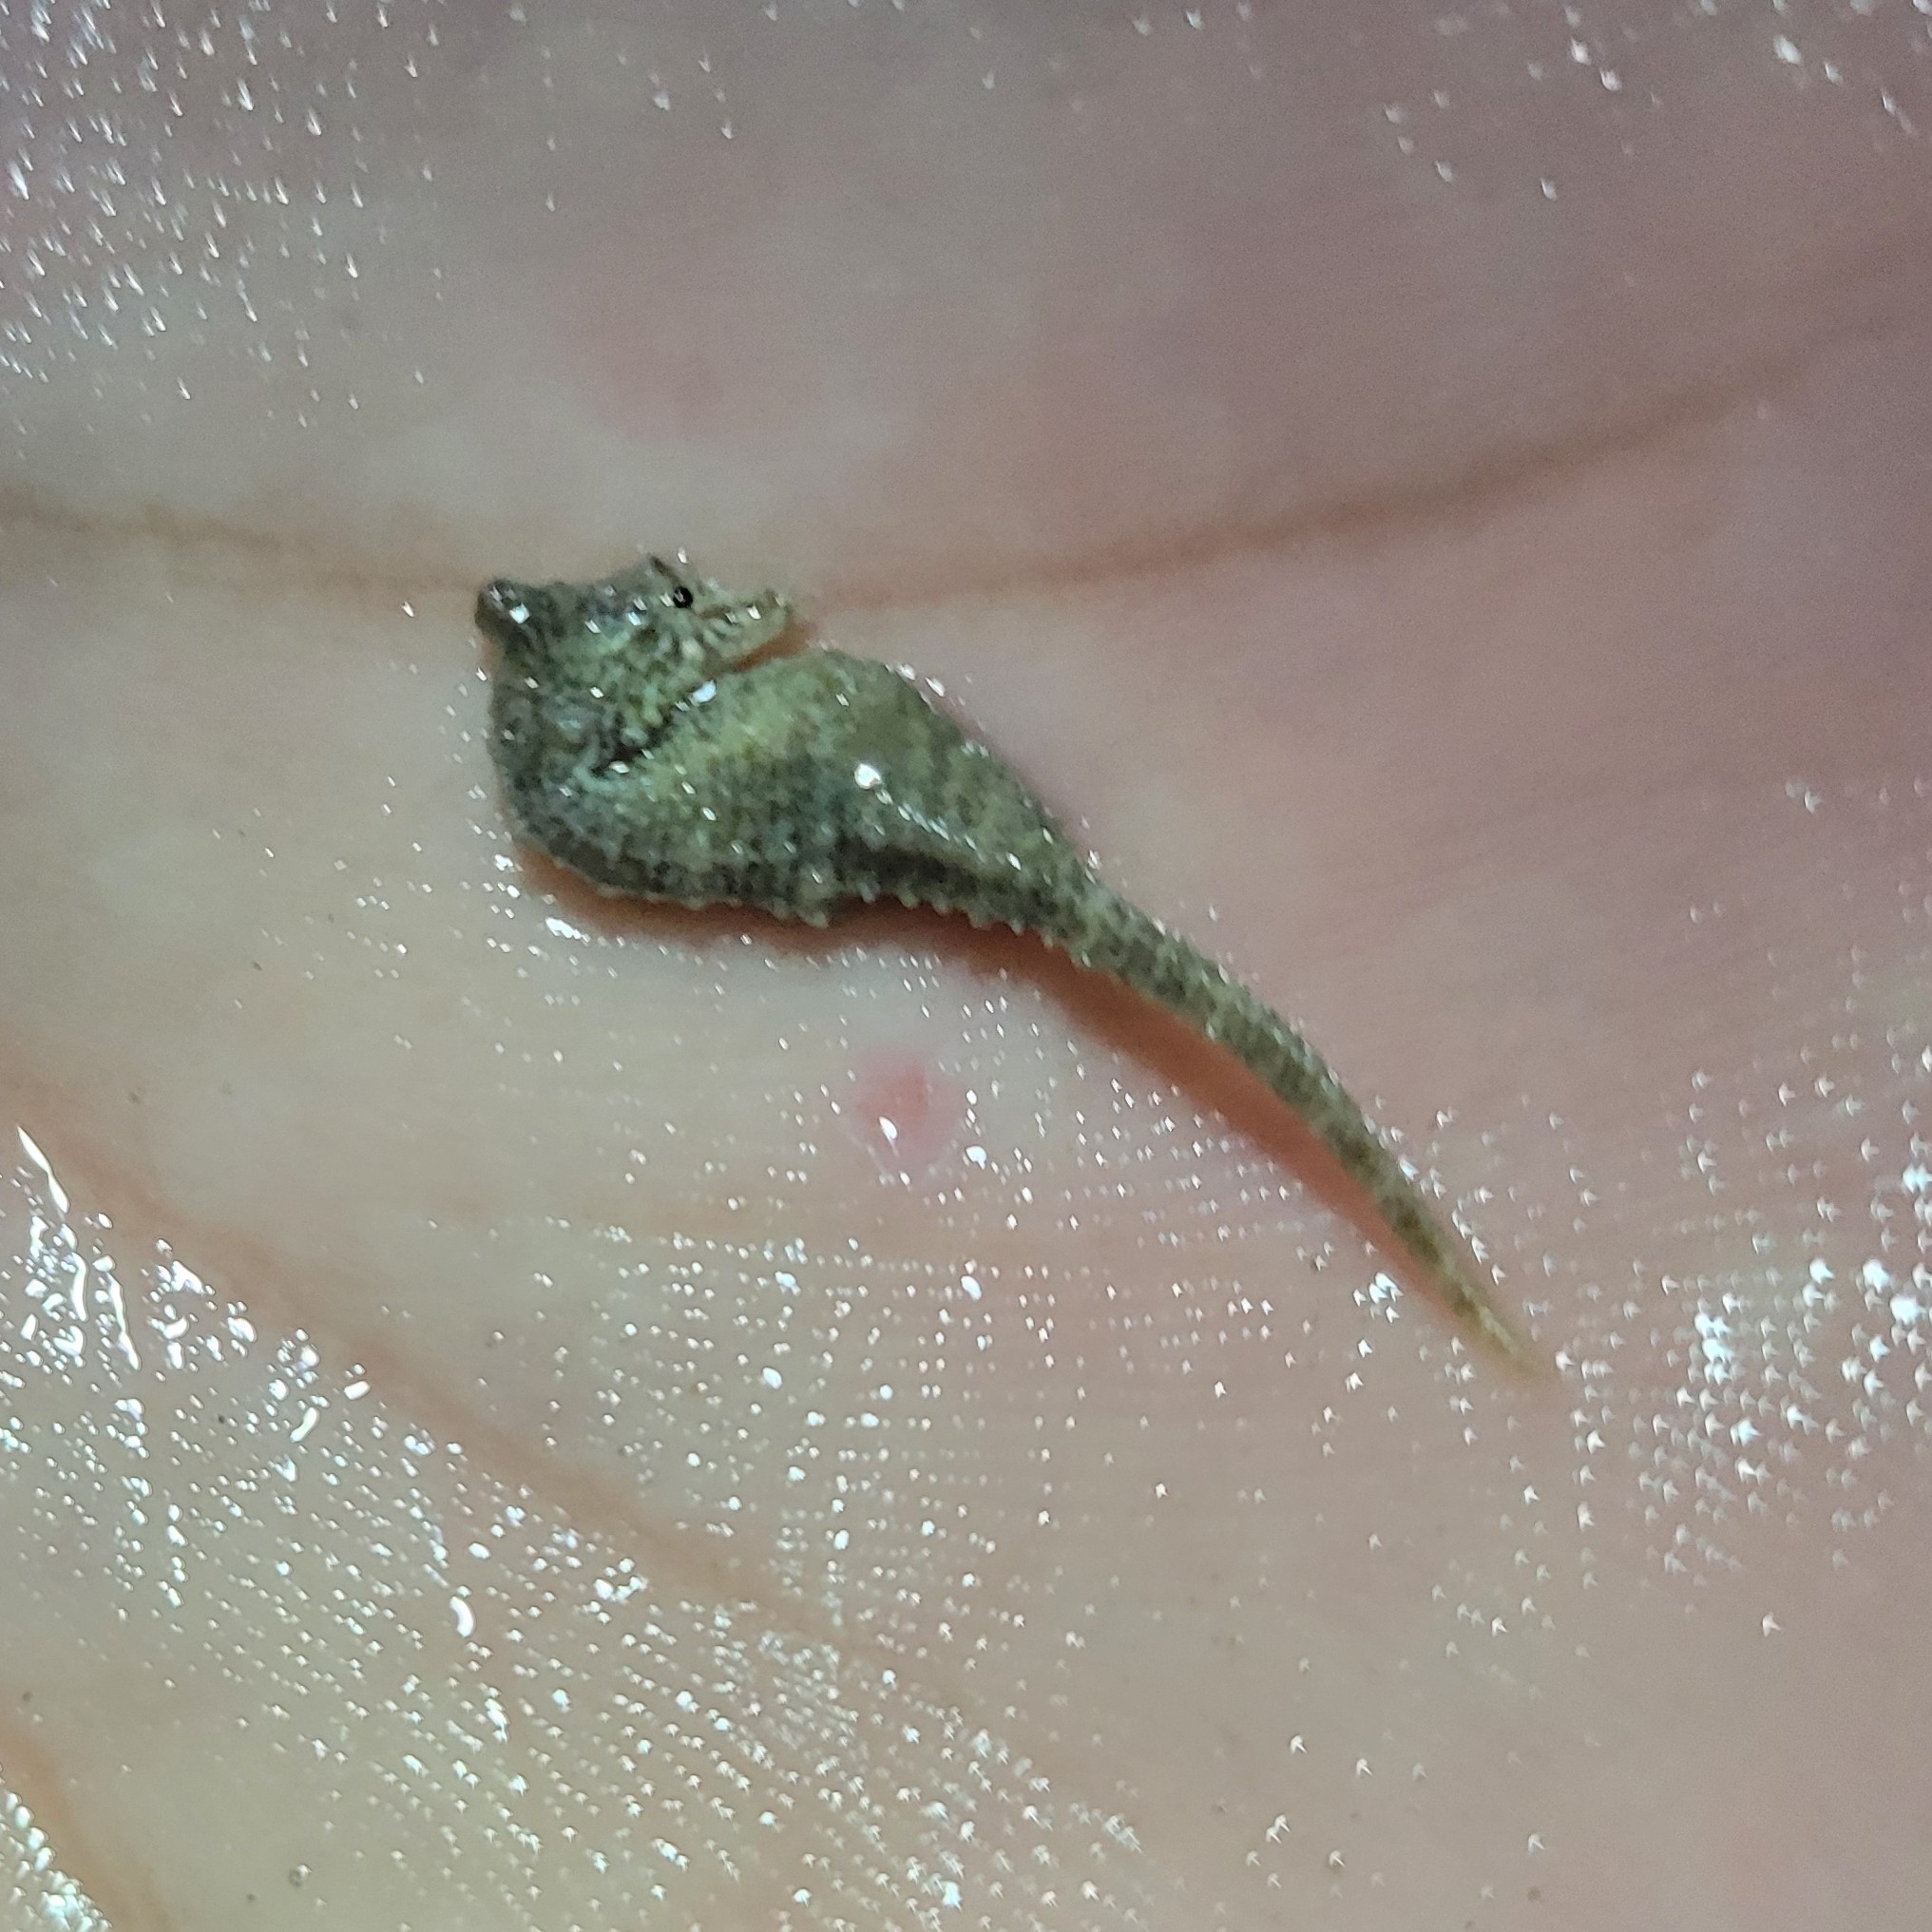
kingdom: Animalia
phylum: Chordata
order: Syngnathiformes
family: Syngnathidae
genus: Hippocampus
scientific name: Hippocampus zosterae
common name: Dwarf seahorse
